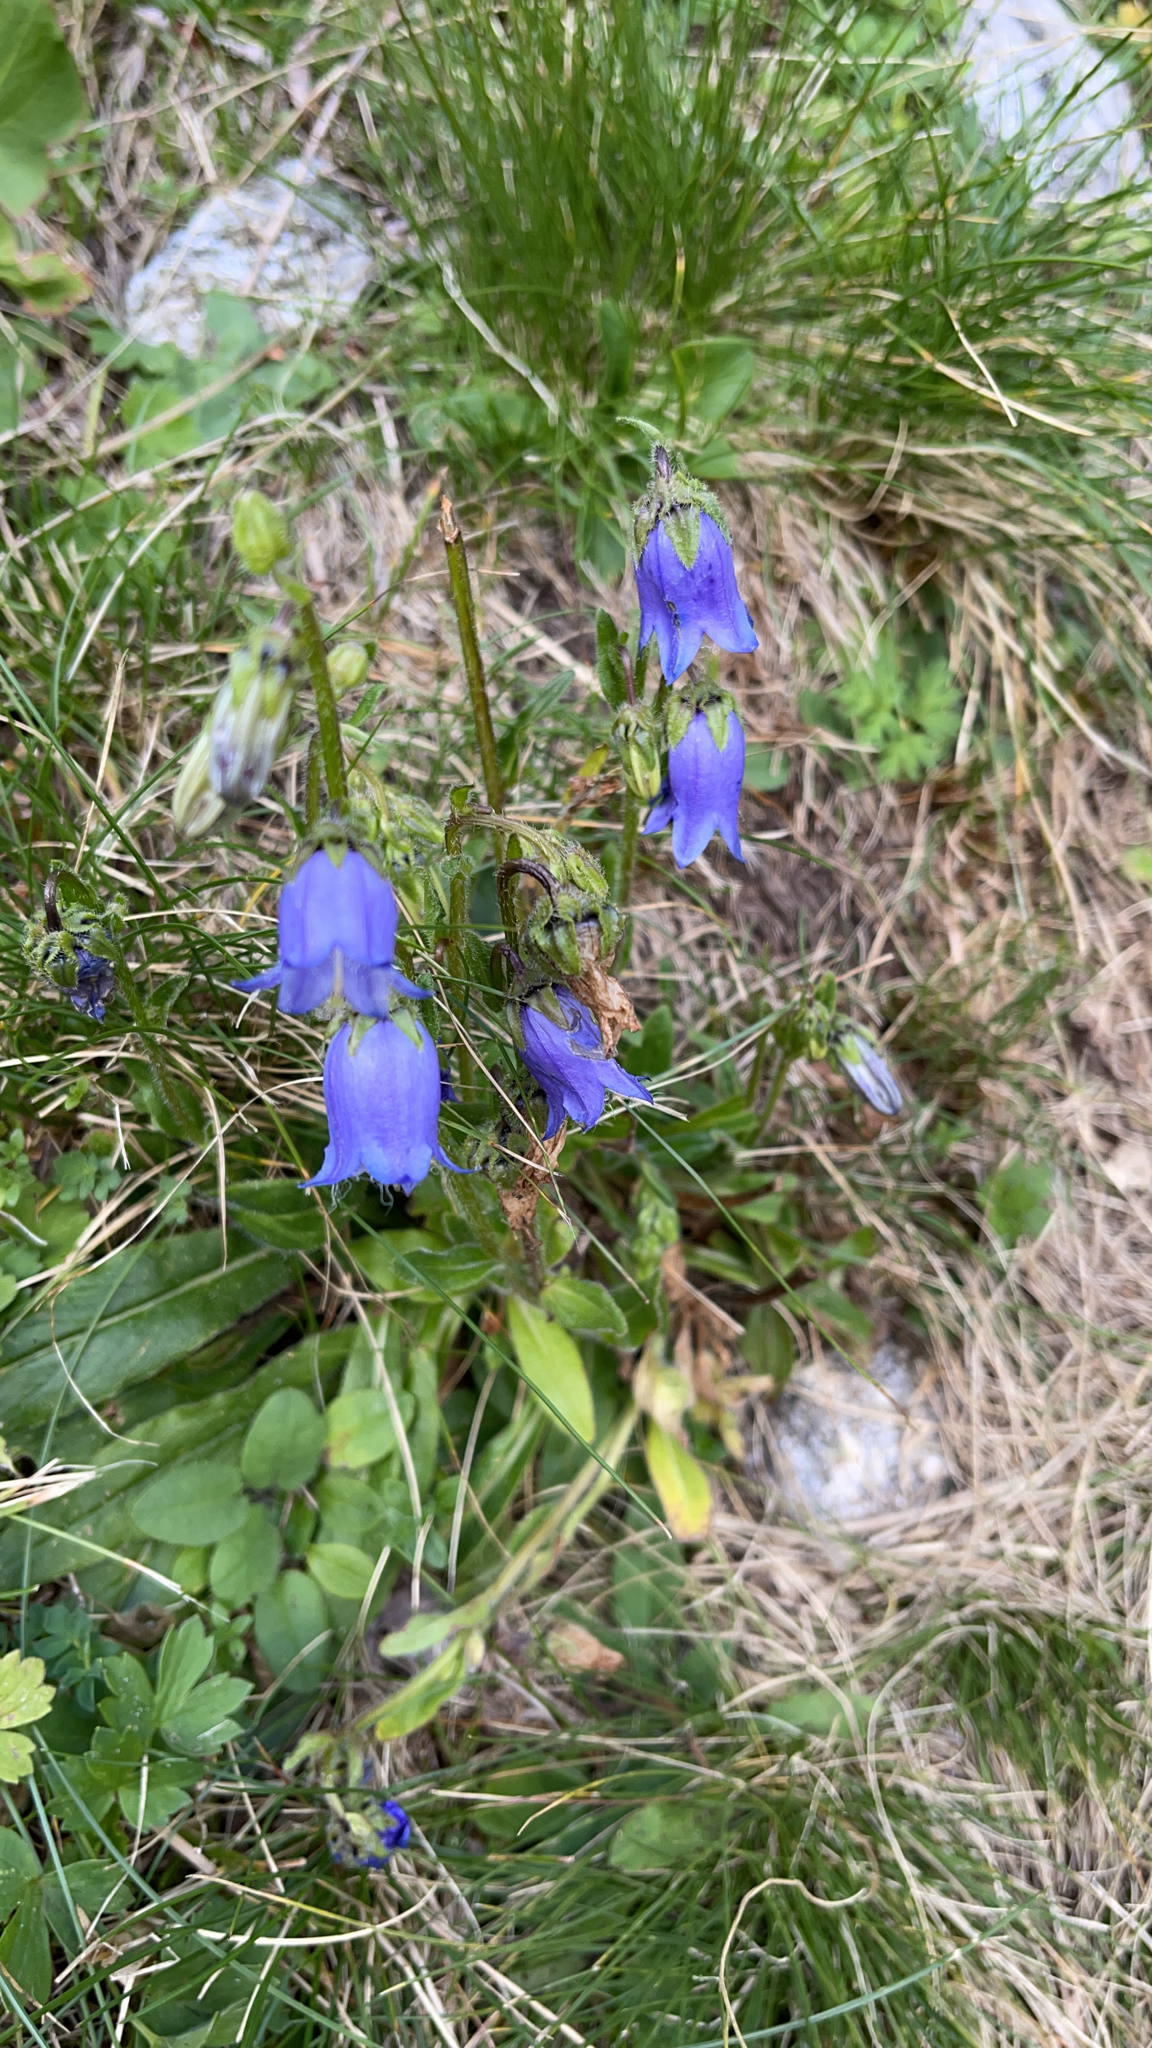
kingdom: Plantae
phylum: Tracheophyta
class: Magnoliopsida
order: Asterales
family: Campanulaceae
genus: Campanula
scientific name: Campanula barbata
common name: Bearded bellflower
